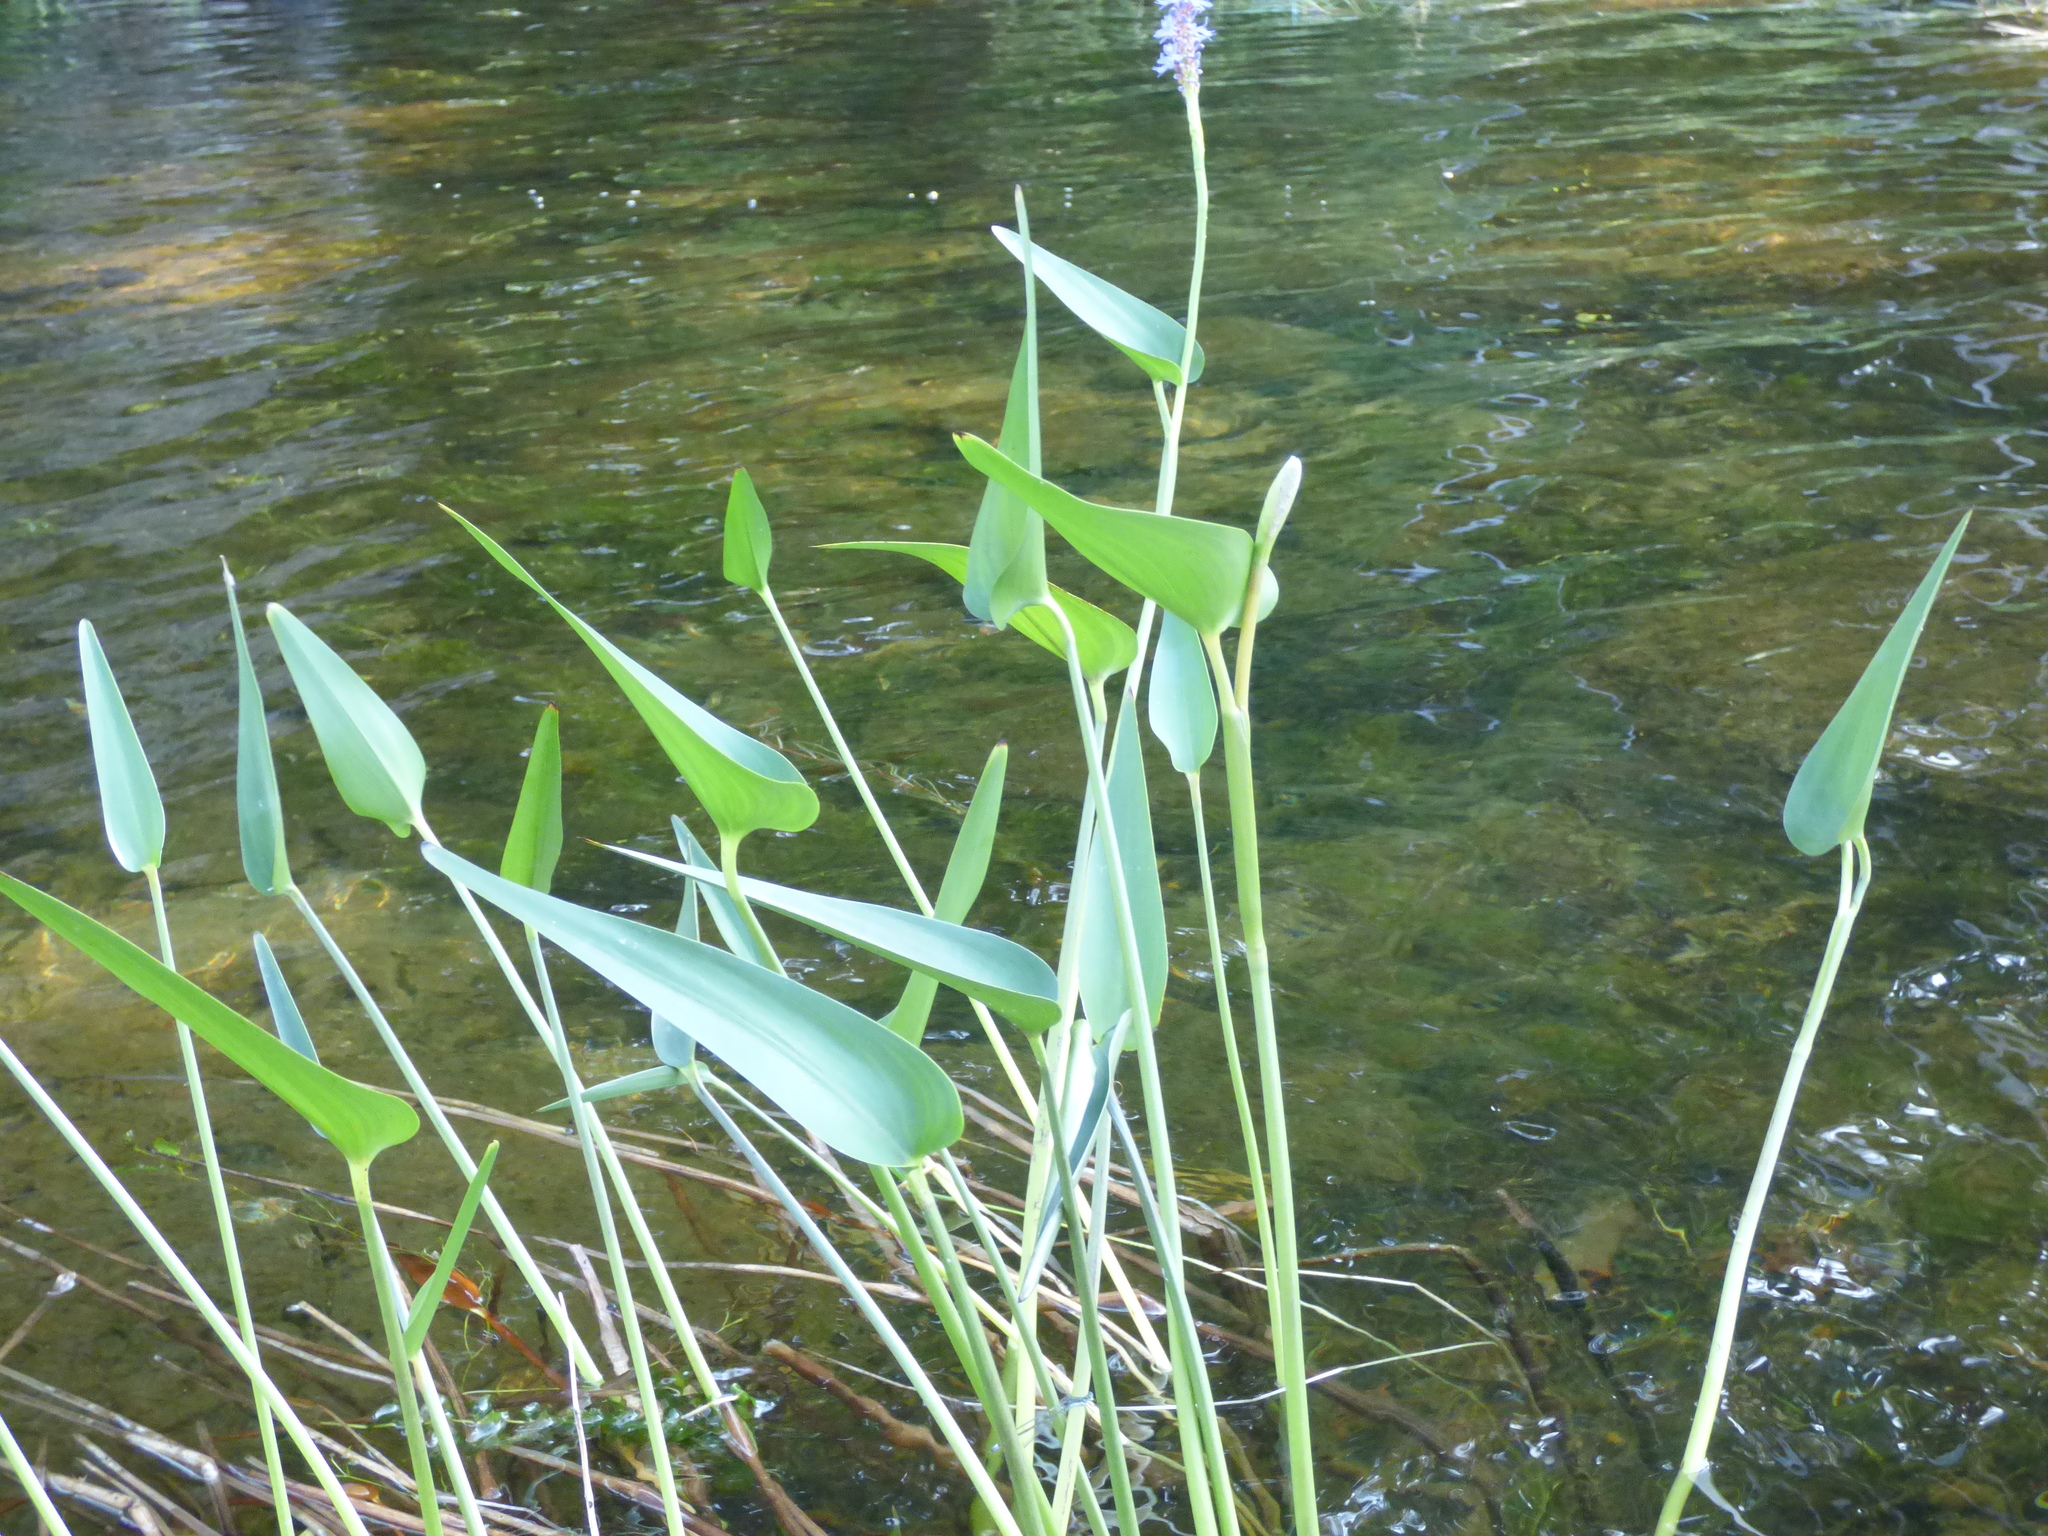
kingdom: Plantae
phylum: Tracheophyta
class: Liliopsida
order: Commelinales
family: Pontederiaceae
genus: Pontederia
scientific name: Pontederia cordata
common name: Pickerelweed
